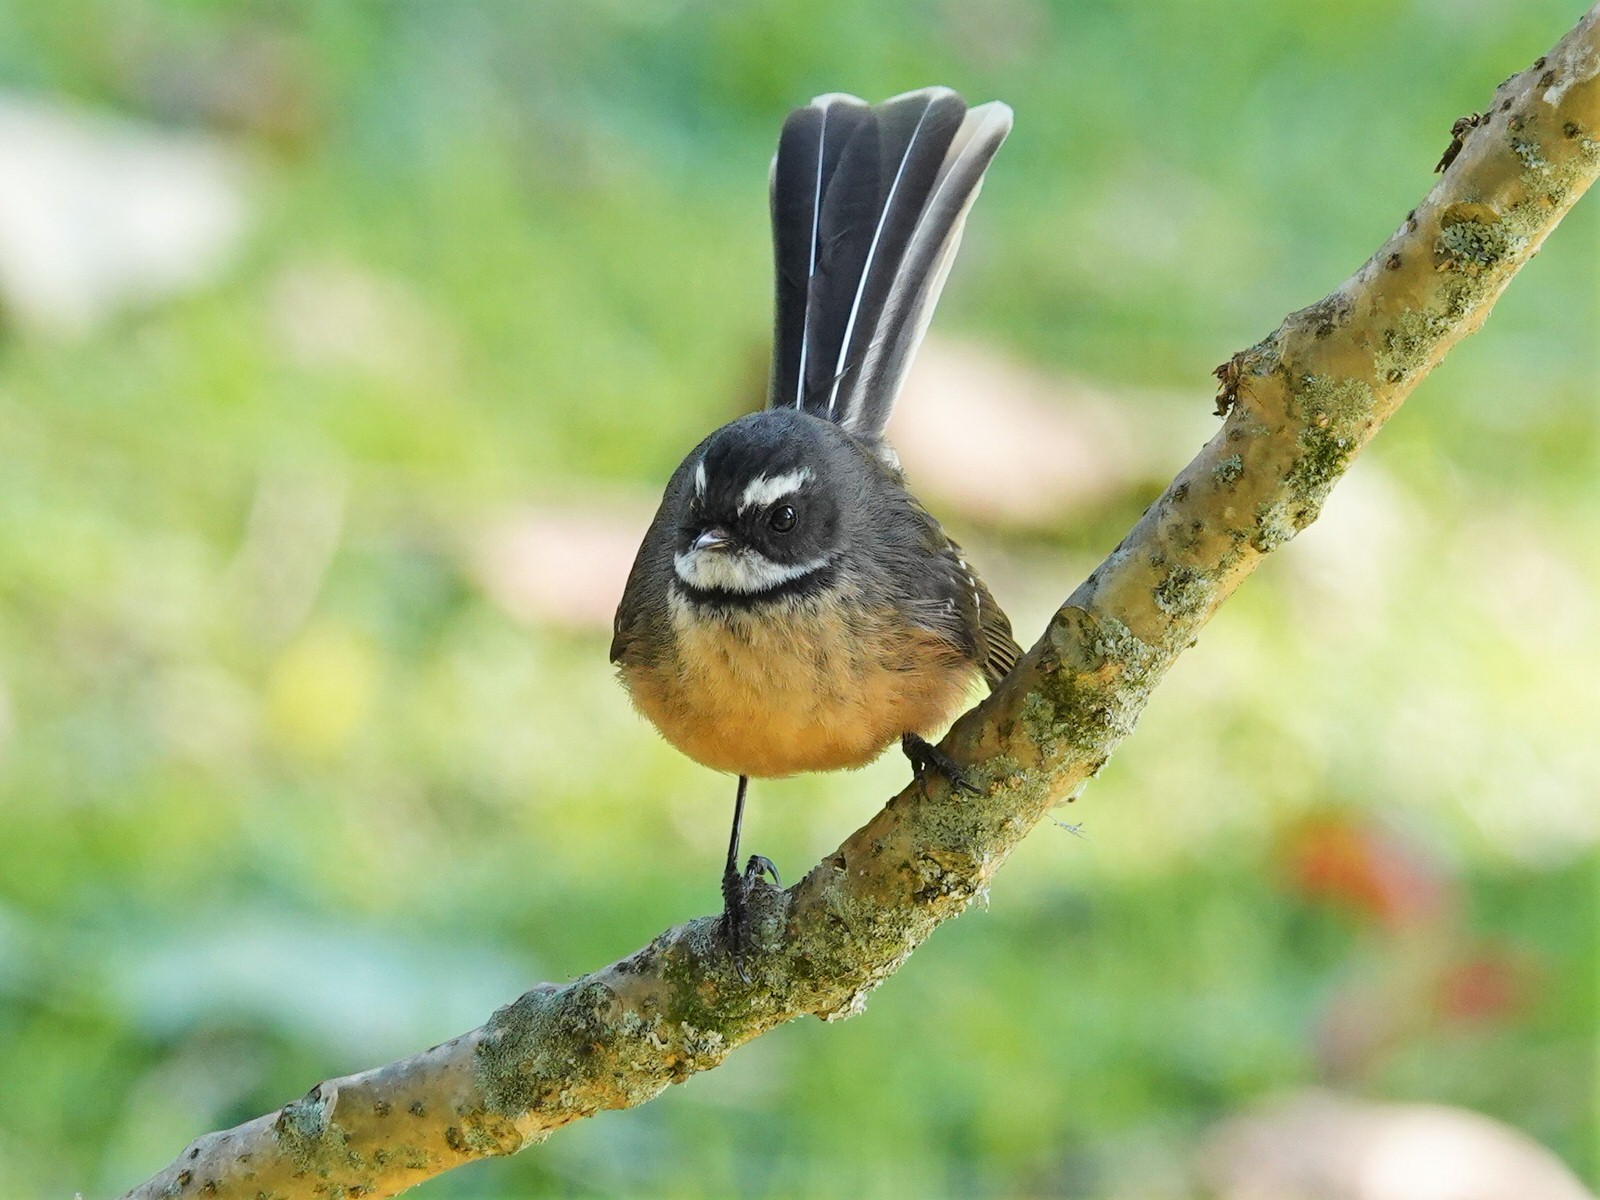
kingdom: Animalia
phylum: Chordata
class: Aves
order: Passeriformes
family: Rhipiduridae
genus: Rhipidura
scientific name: Rhipidura fuliginosa
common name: New zealand fantail
